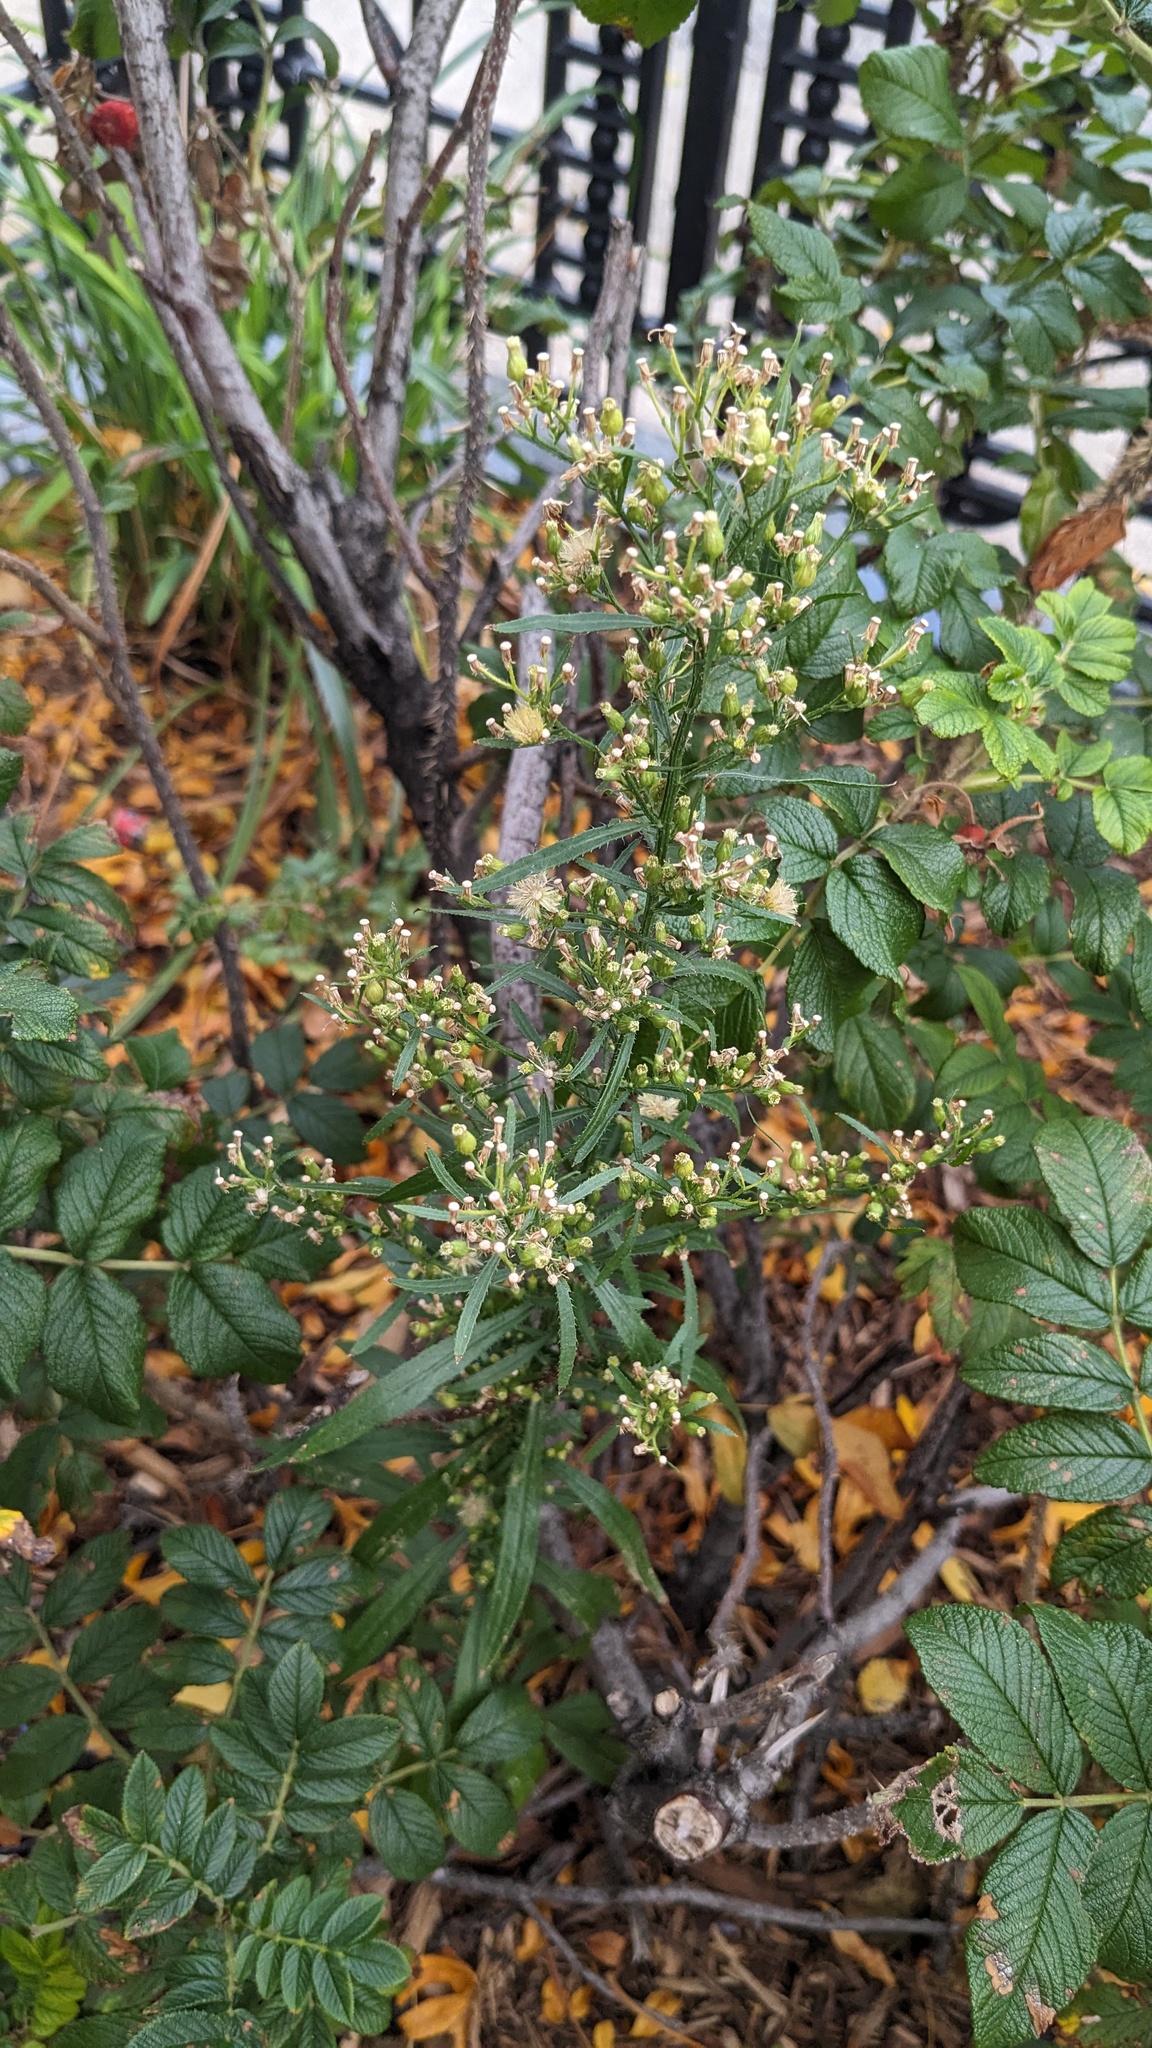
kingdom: Plantae
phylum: Tracheophyta
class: Magnoliopsida
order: Asterales
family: Asteraceae
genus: Erigeron
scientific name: Erigeron canadensis
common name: Canadian fleabane
